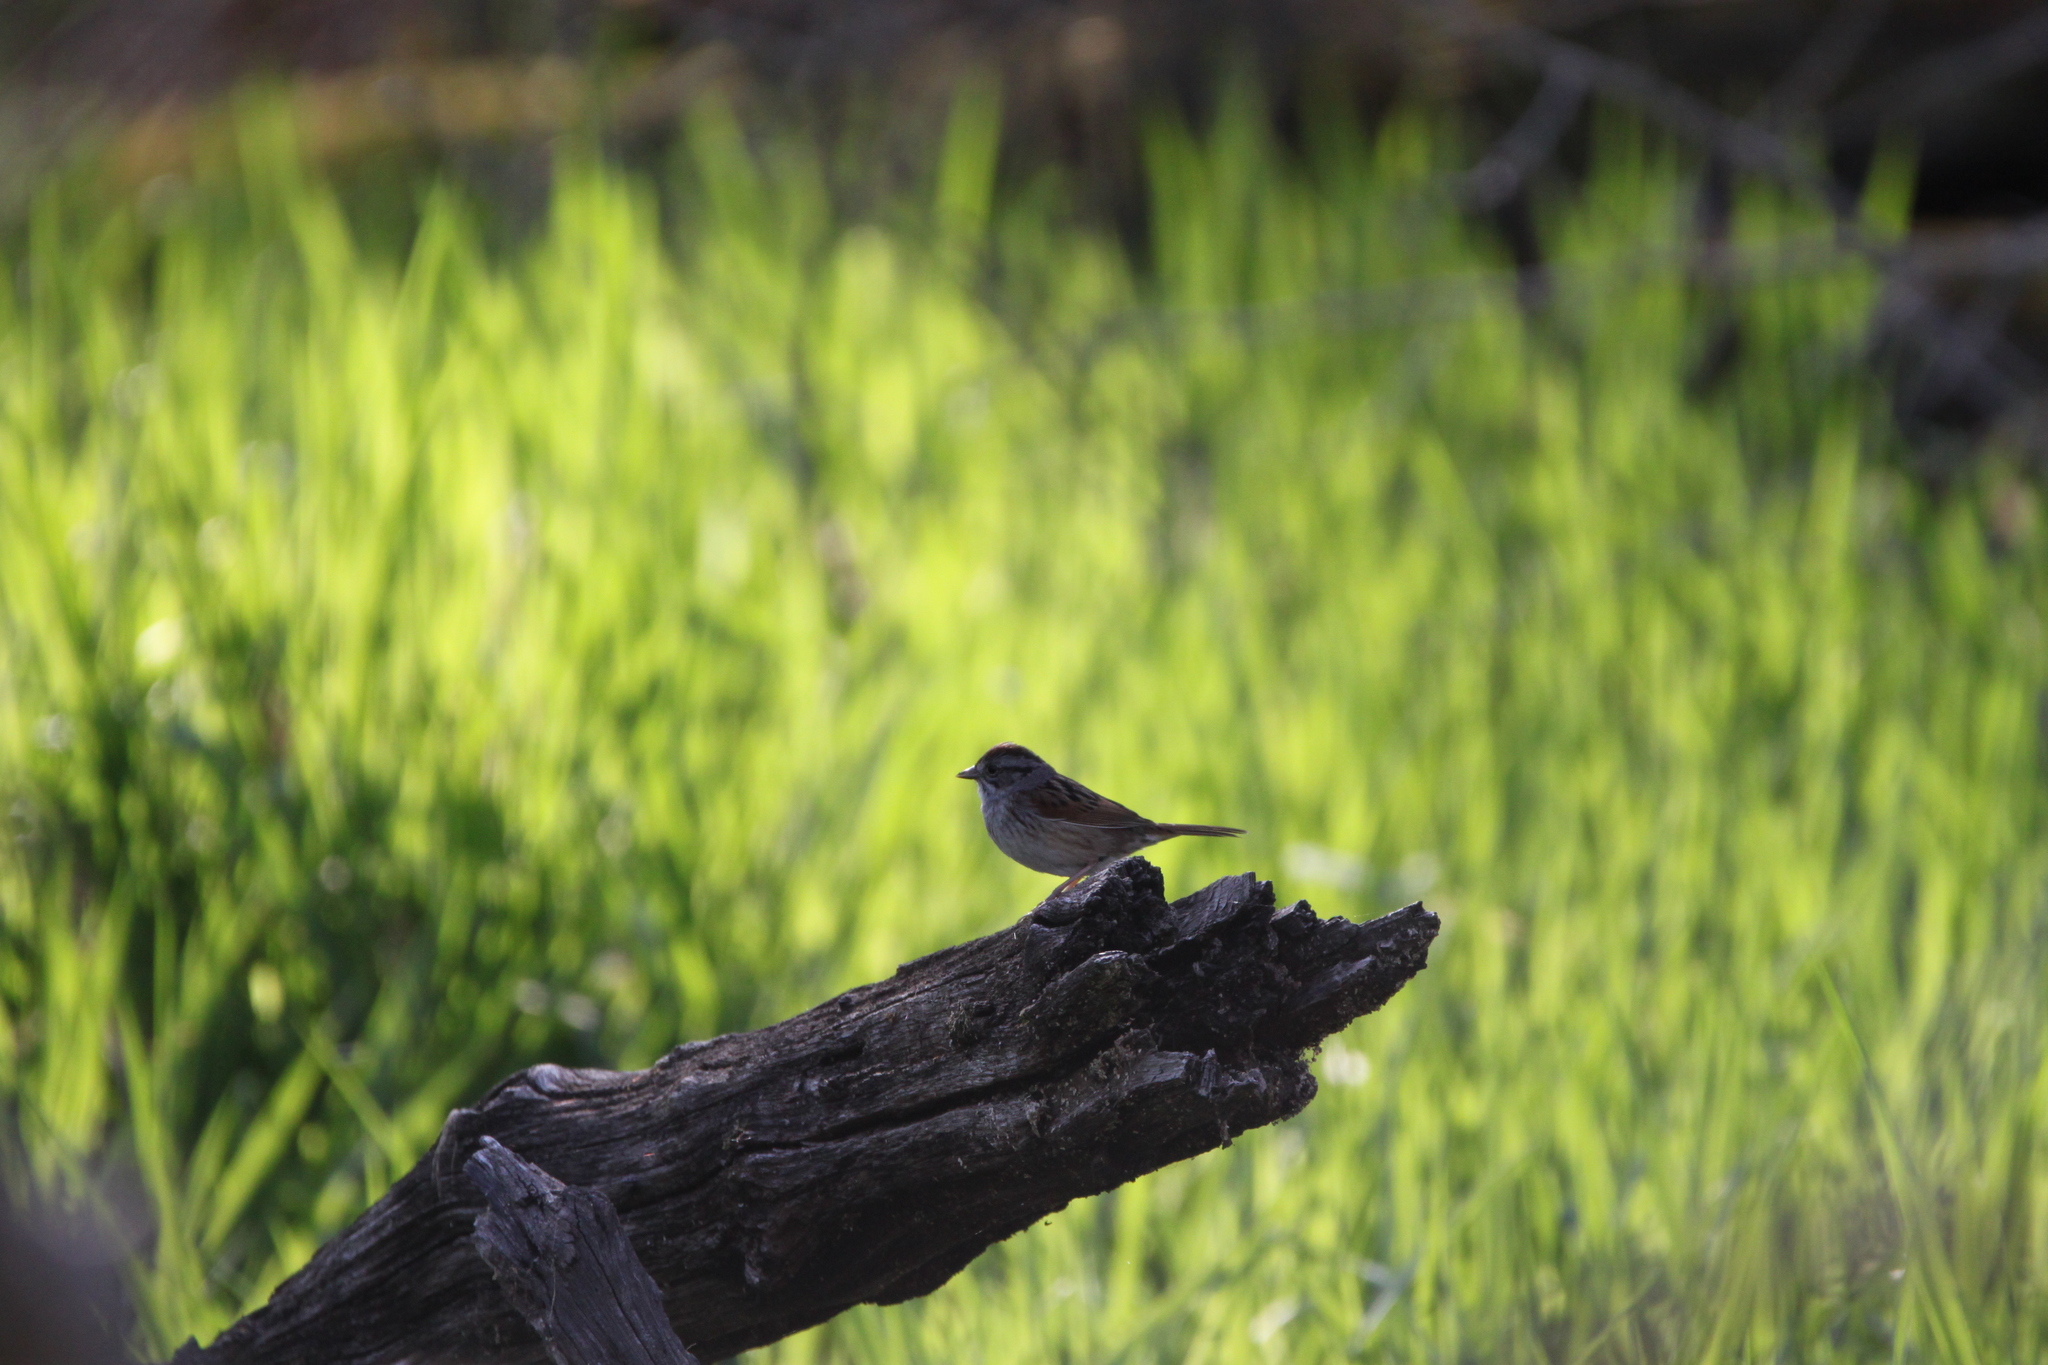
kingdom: Animalia
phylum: Chordata
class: Aves
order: Passeriformes
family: Passerellidae
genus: Melospiza
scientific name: Melospiza georgiana
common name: Swamp sparrow
